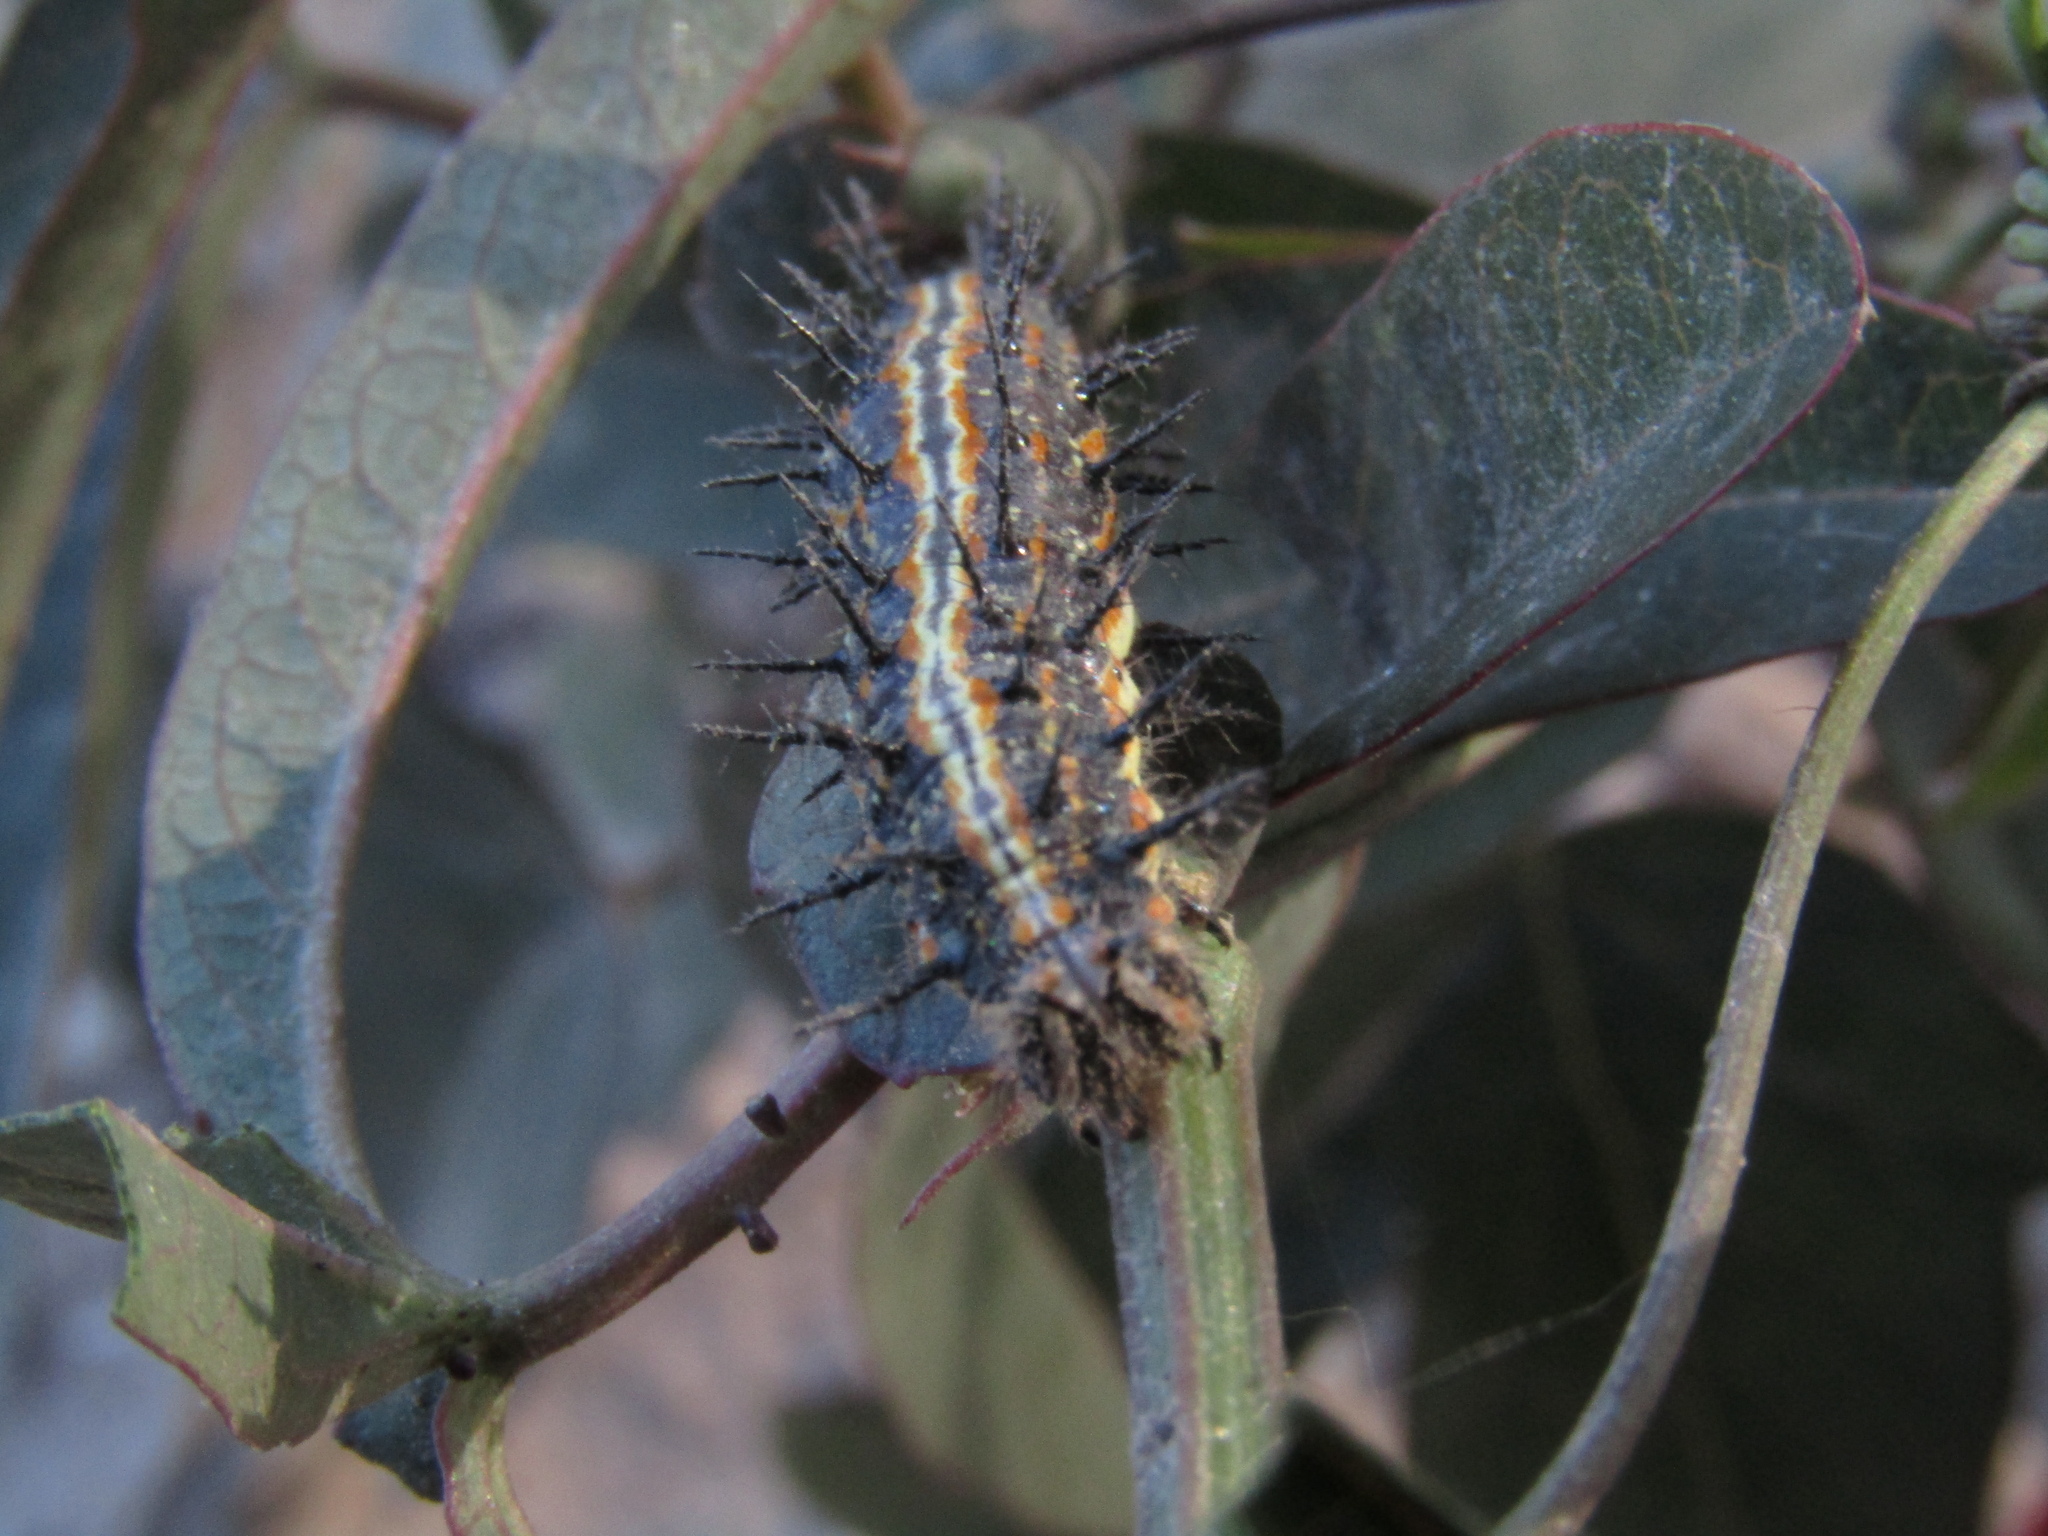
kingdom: Animalia
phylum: Arthropoda
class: Insecta
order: Lepidoptera
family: Nymphalidae
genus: Dione
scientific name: Dione vanillae
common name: Gulf fritillary
